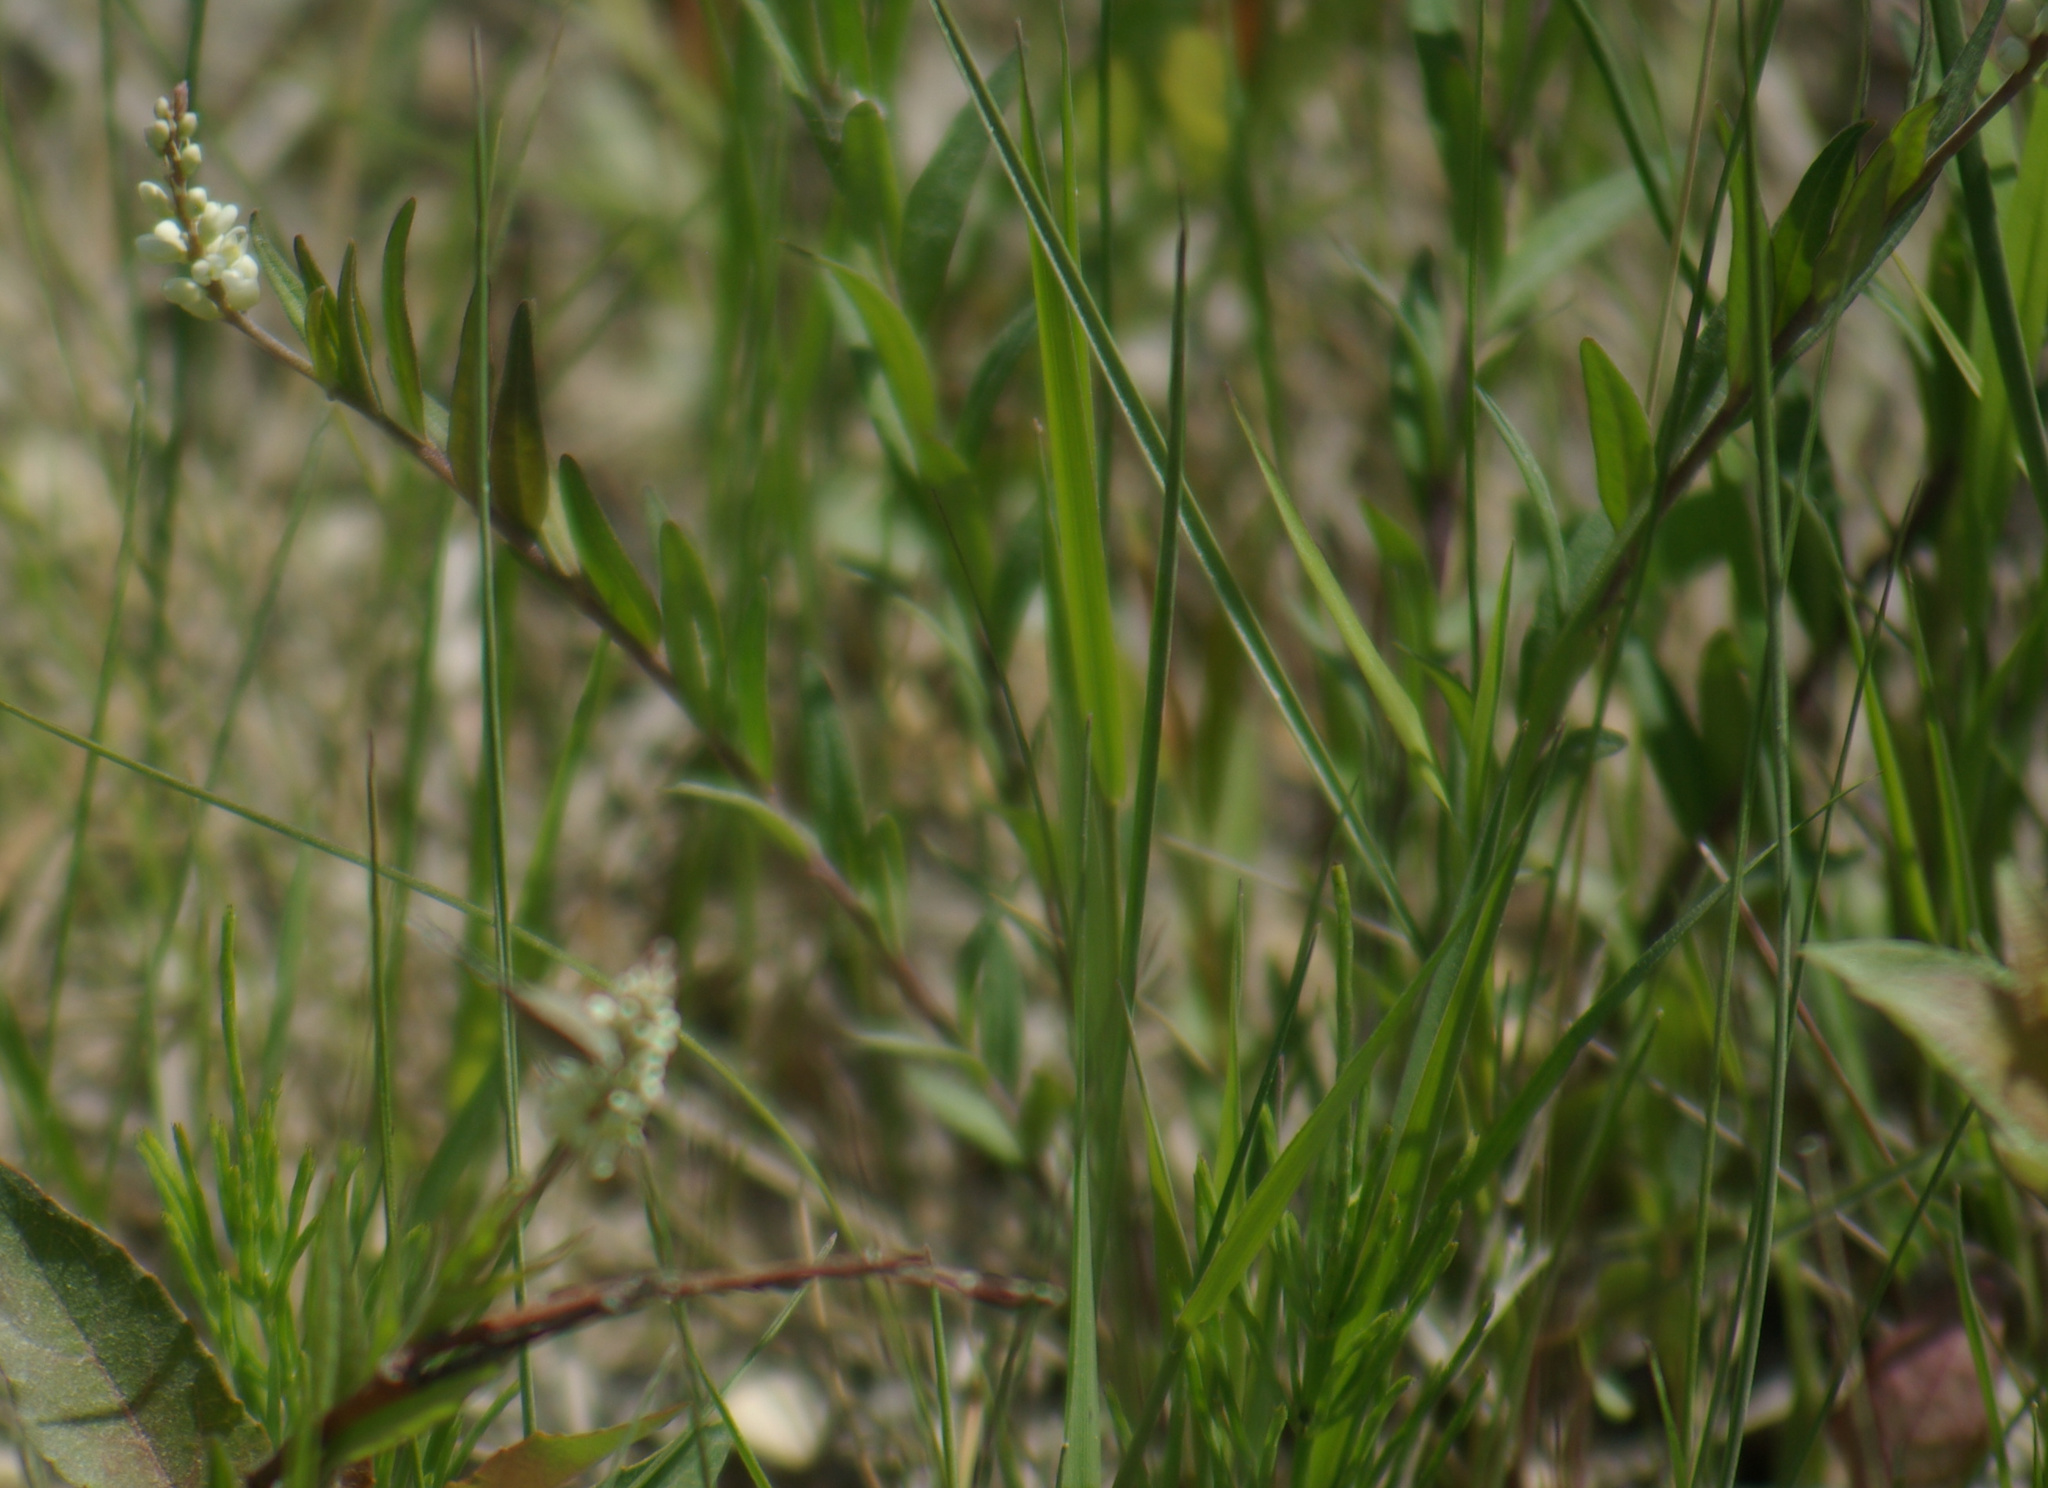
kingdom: Plantae
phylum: Tracheophyta
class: Magnoliopsida
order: Fabales
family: Polygalaceae
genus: Polygala
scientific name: Polygala senega
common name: Seneca snakeroot
